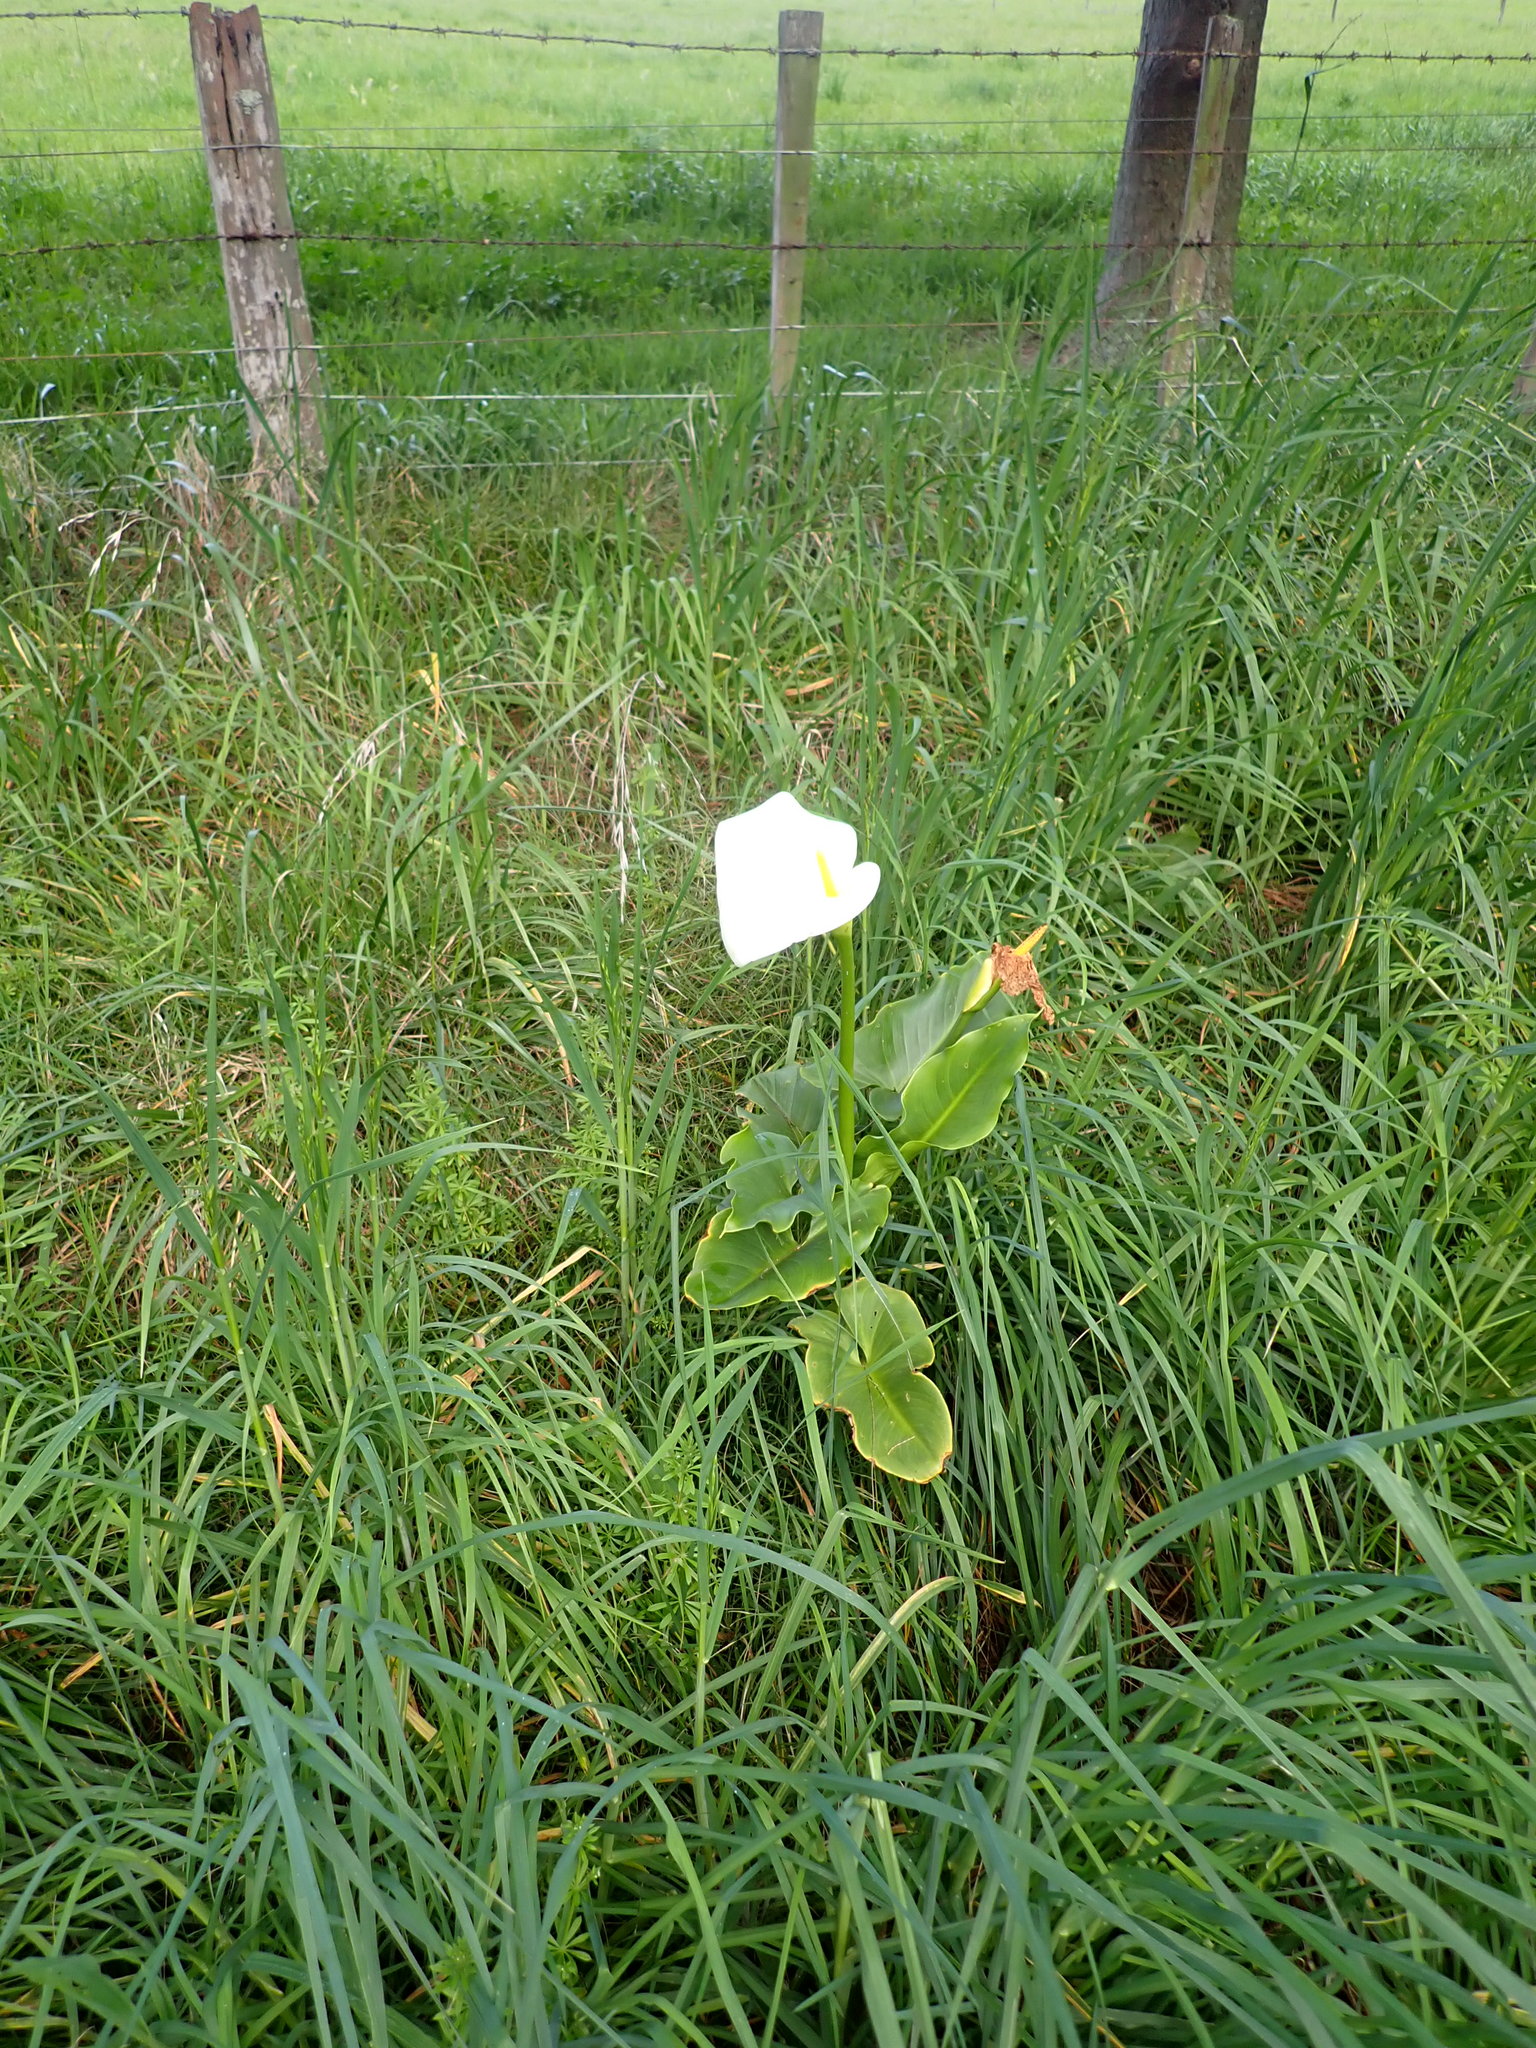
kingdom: Plantae
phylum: Tracheophyta
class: Liliopsida
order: Alismatales
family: Araceae
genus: Zantedeschia
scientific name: Zantedeschia aethiopica
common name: Altar-lily
